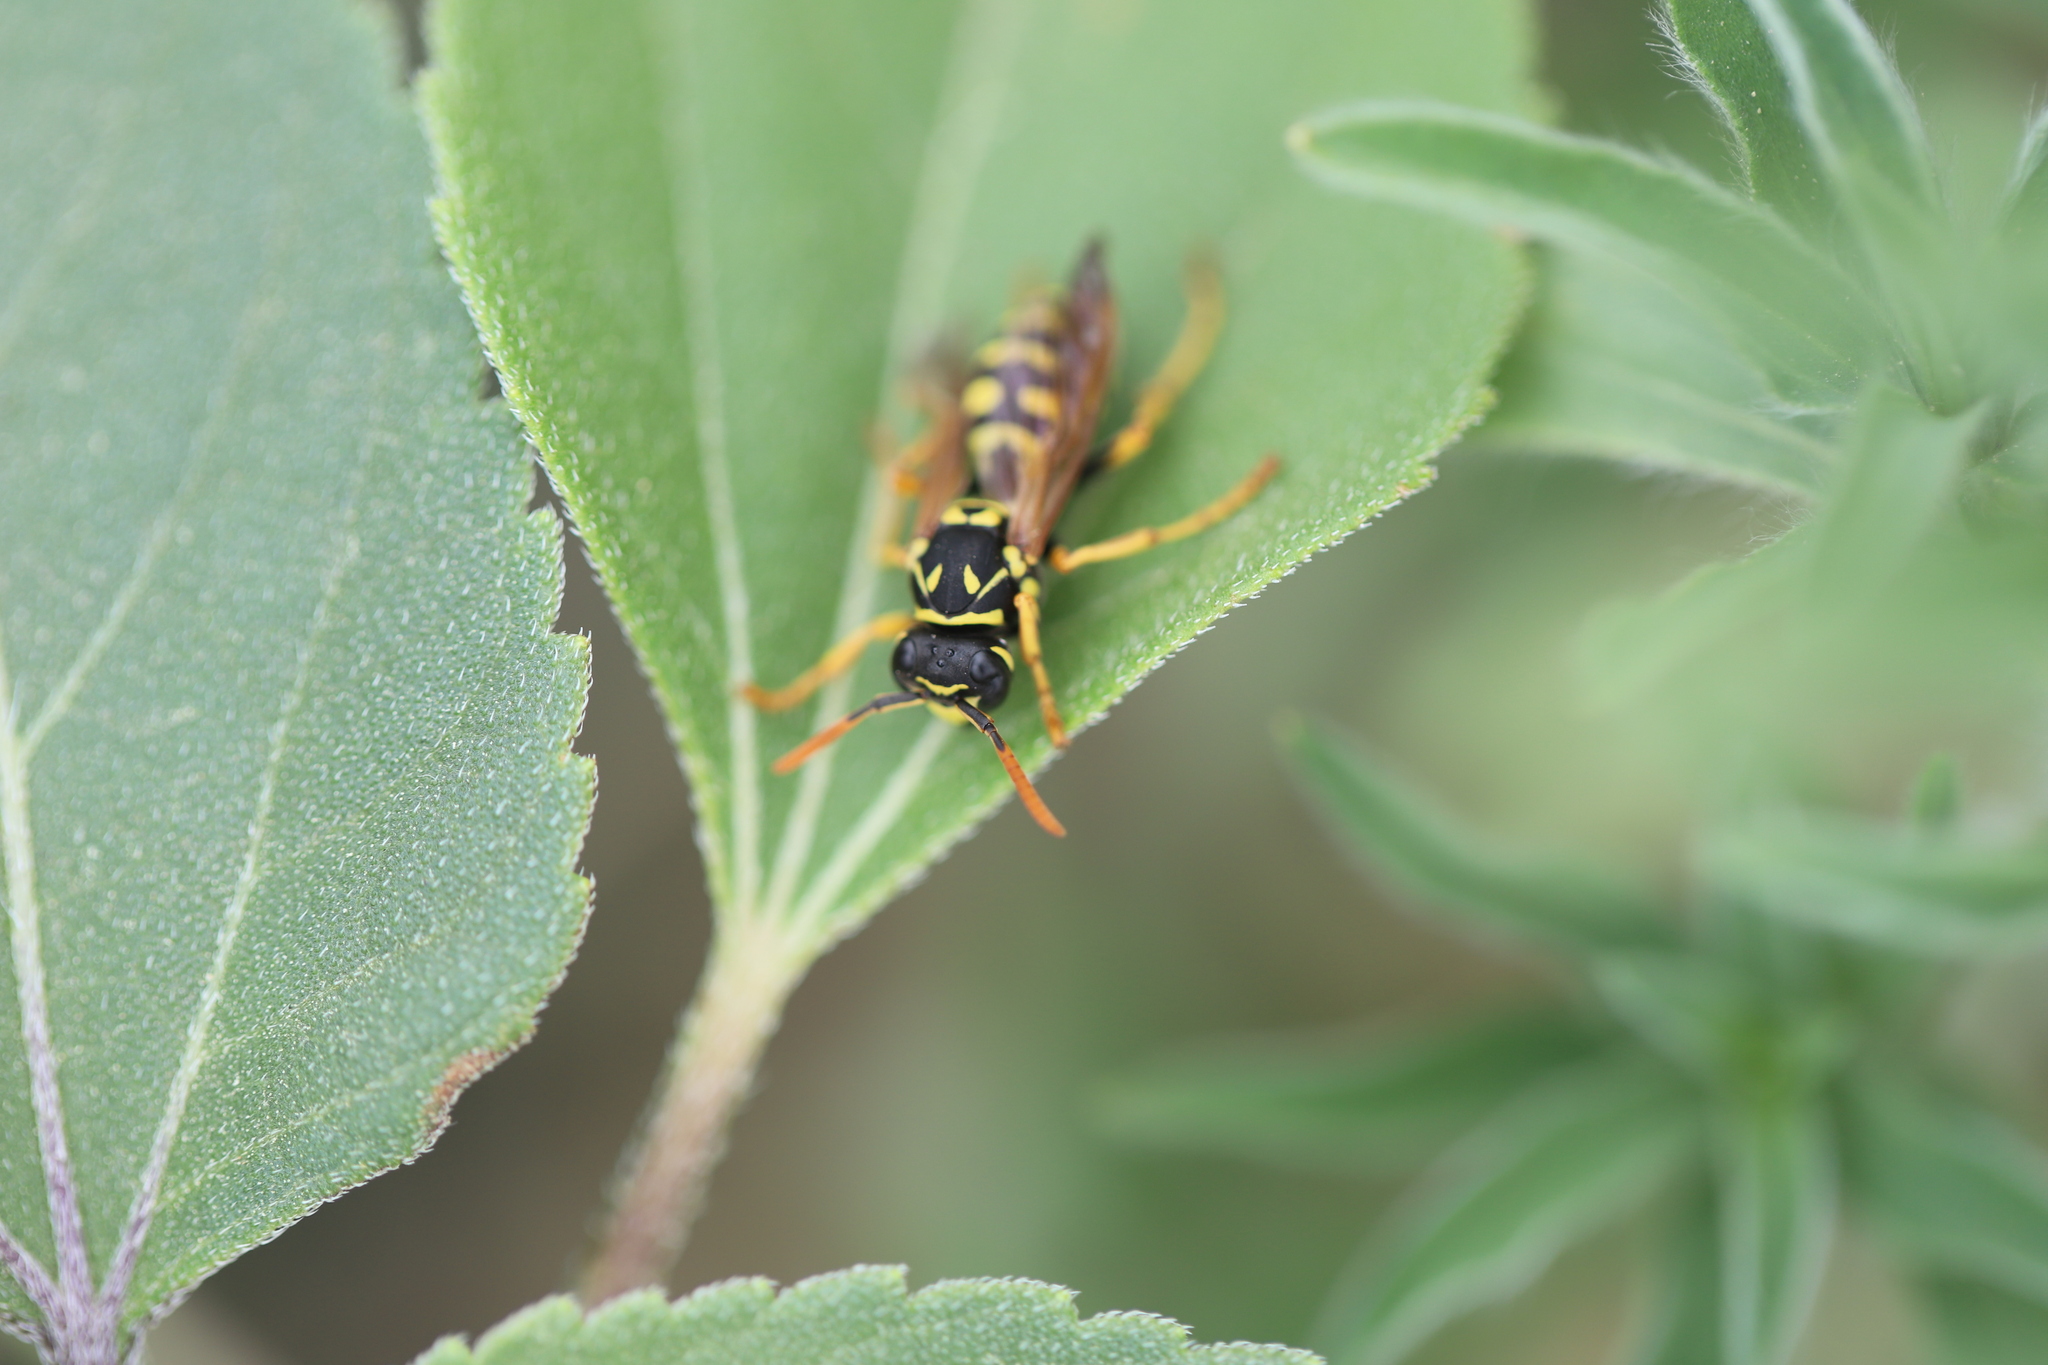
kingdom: Animalia
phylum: Arthropoda
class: Insecta
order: Hymenoptera
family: Eumenidae
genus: Polistes
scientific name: Polistes dominula
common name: Paper wasp
